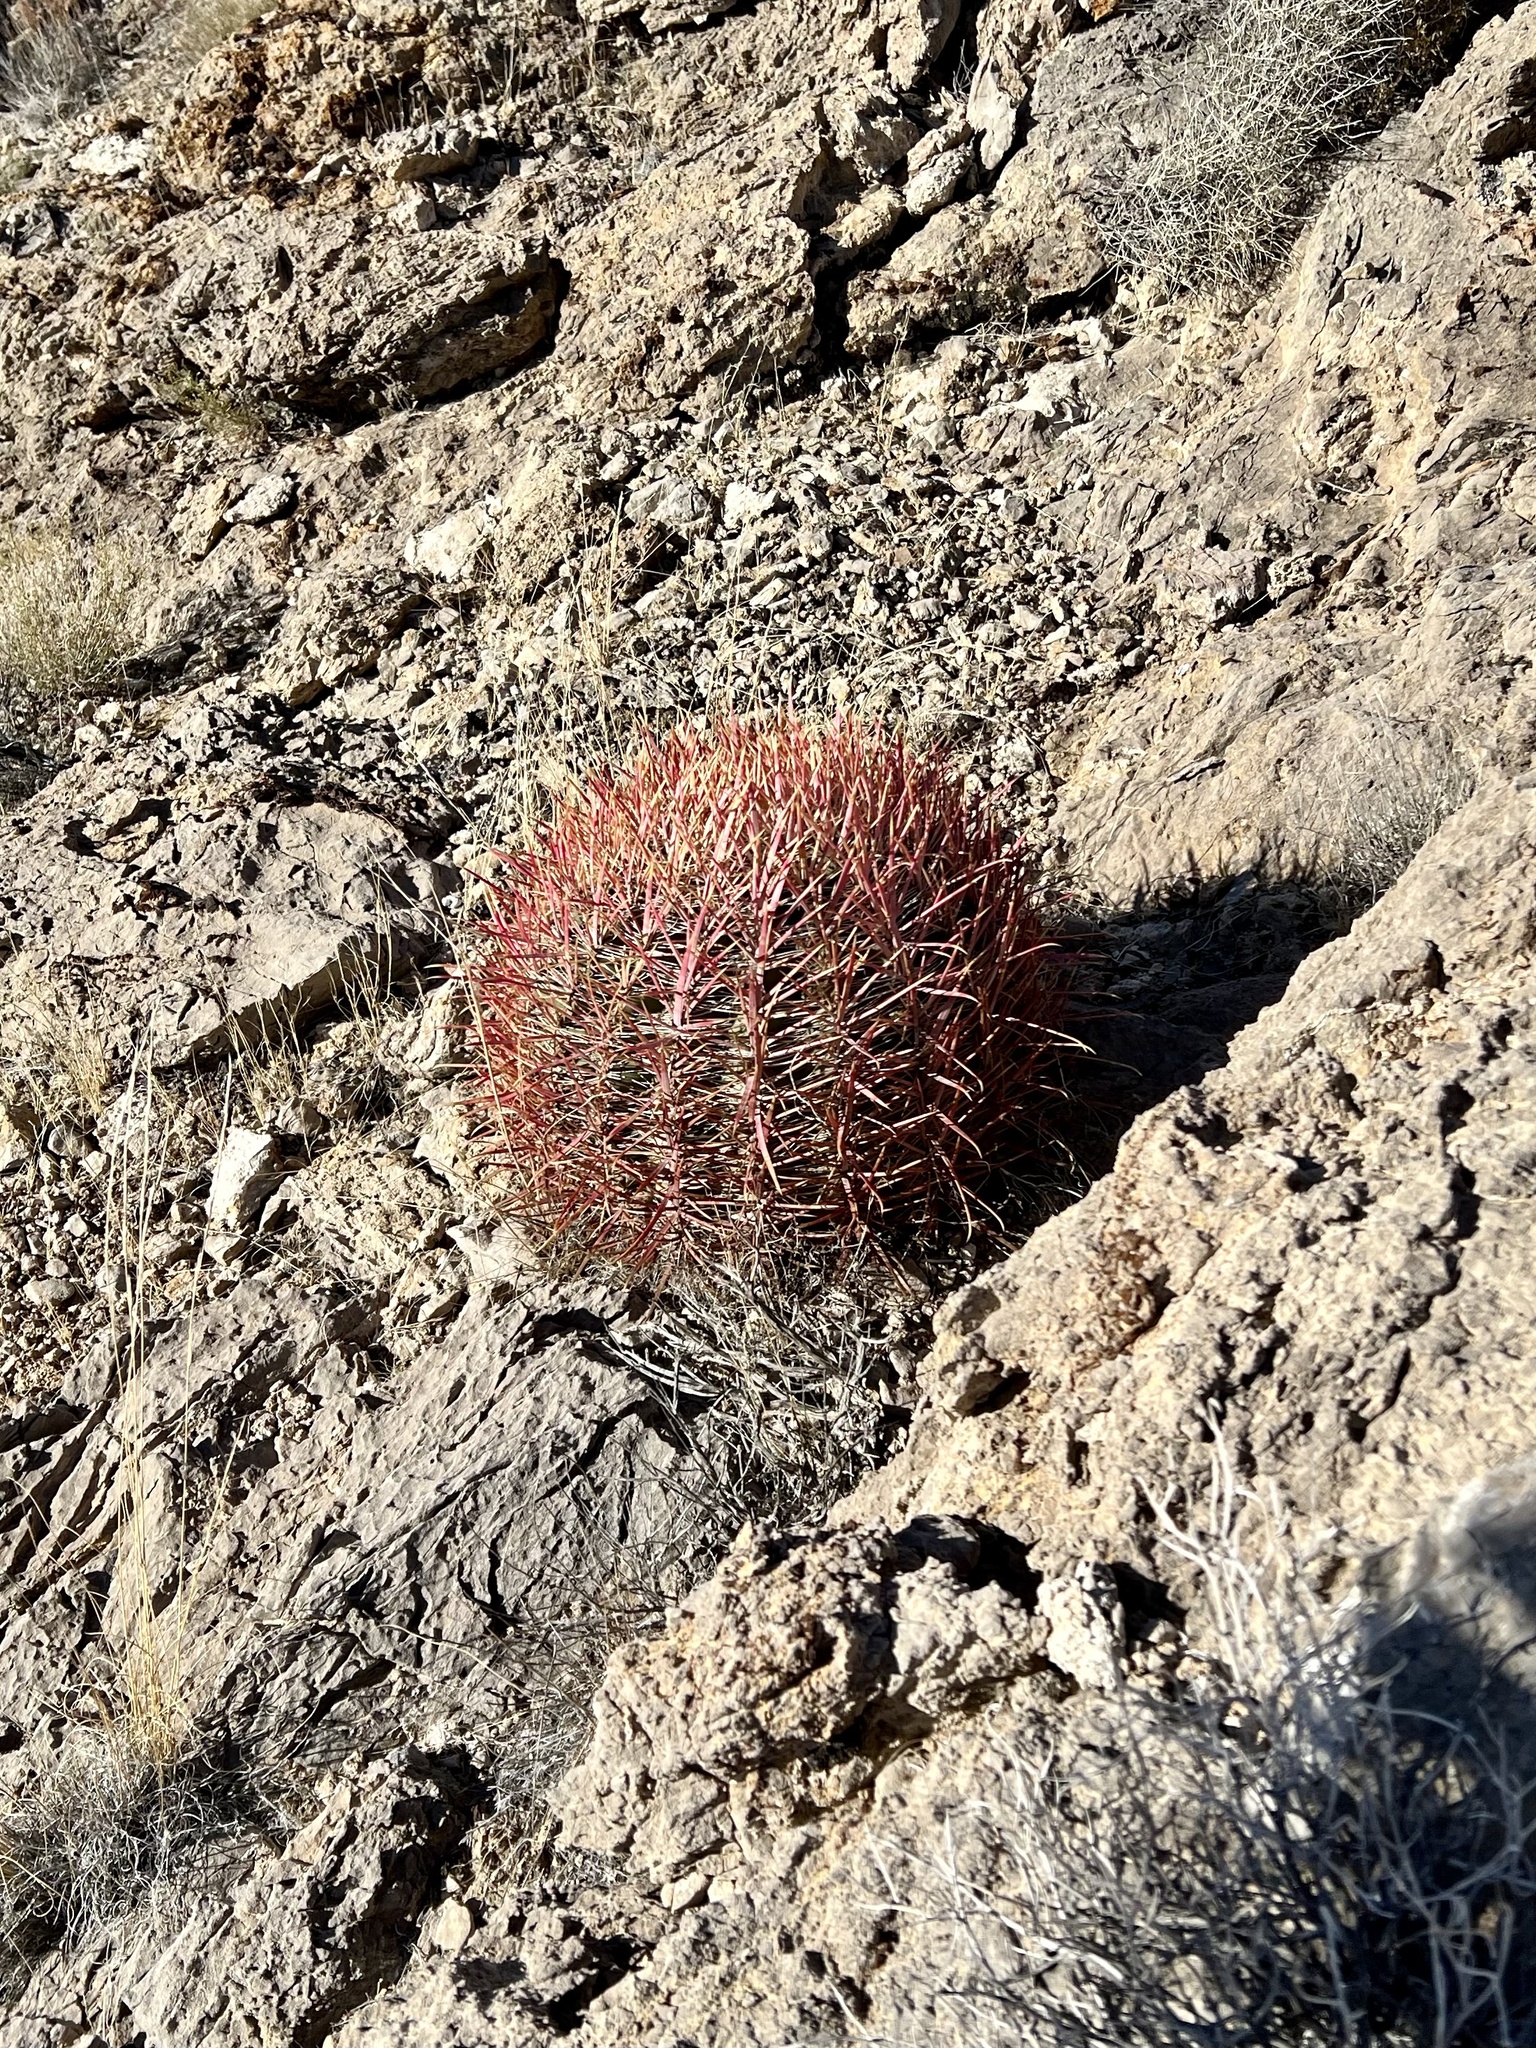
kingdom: Plantae
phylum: Tracheophyta
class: Magnoliopsida
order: Caryophyllales
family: Cactaceae
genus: Ferocactus
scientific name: Ferocactus cylindraceus
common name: California barrel cactus
